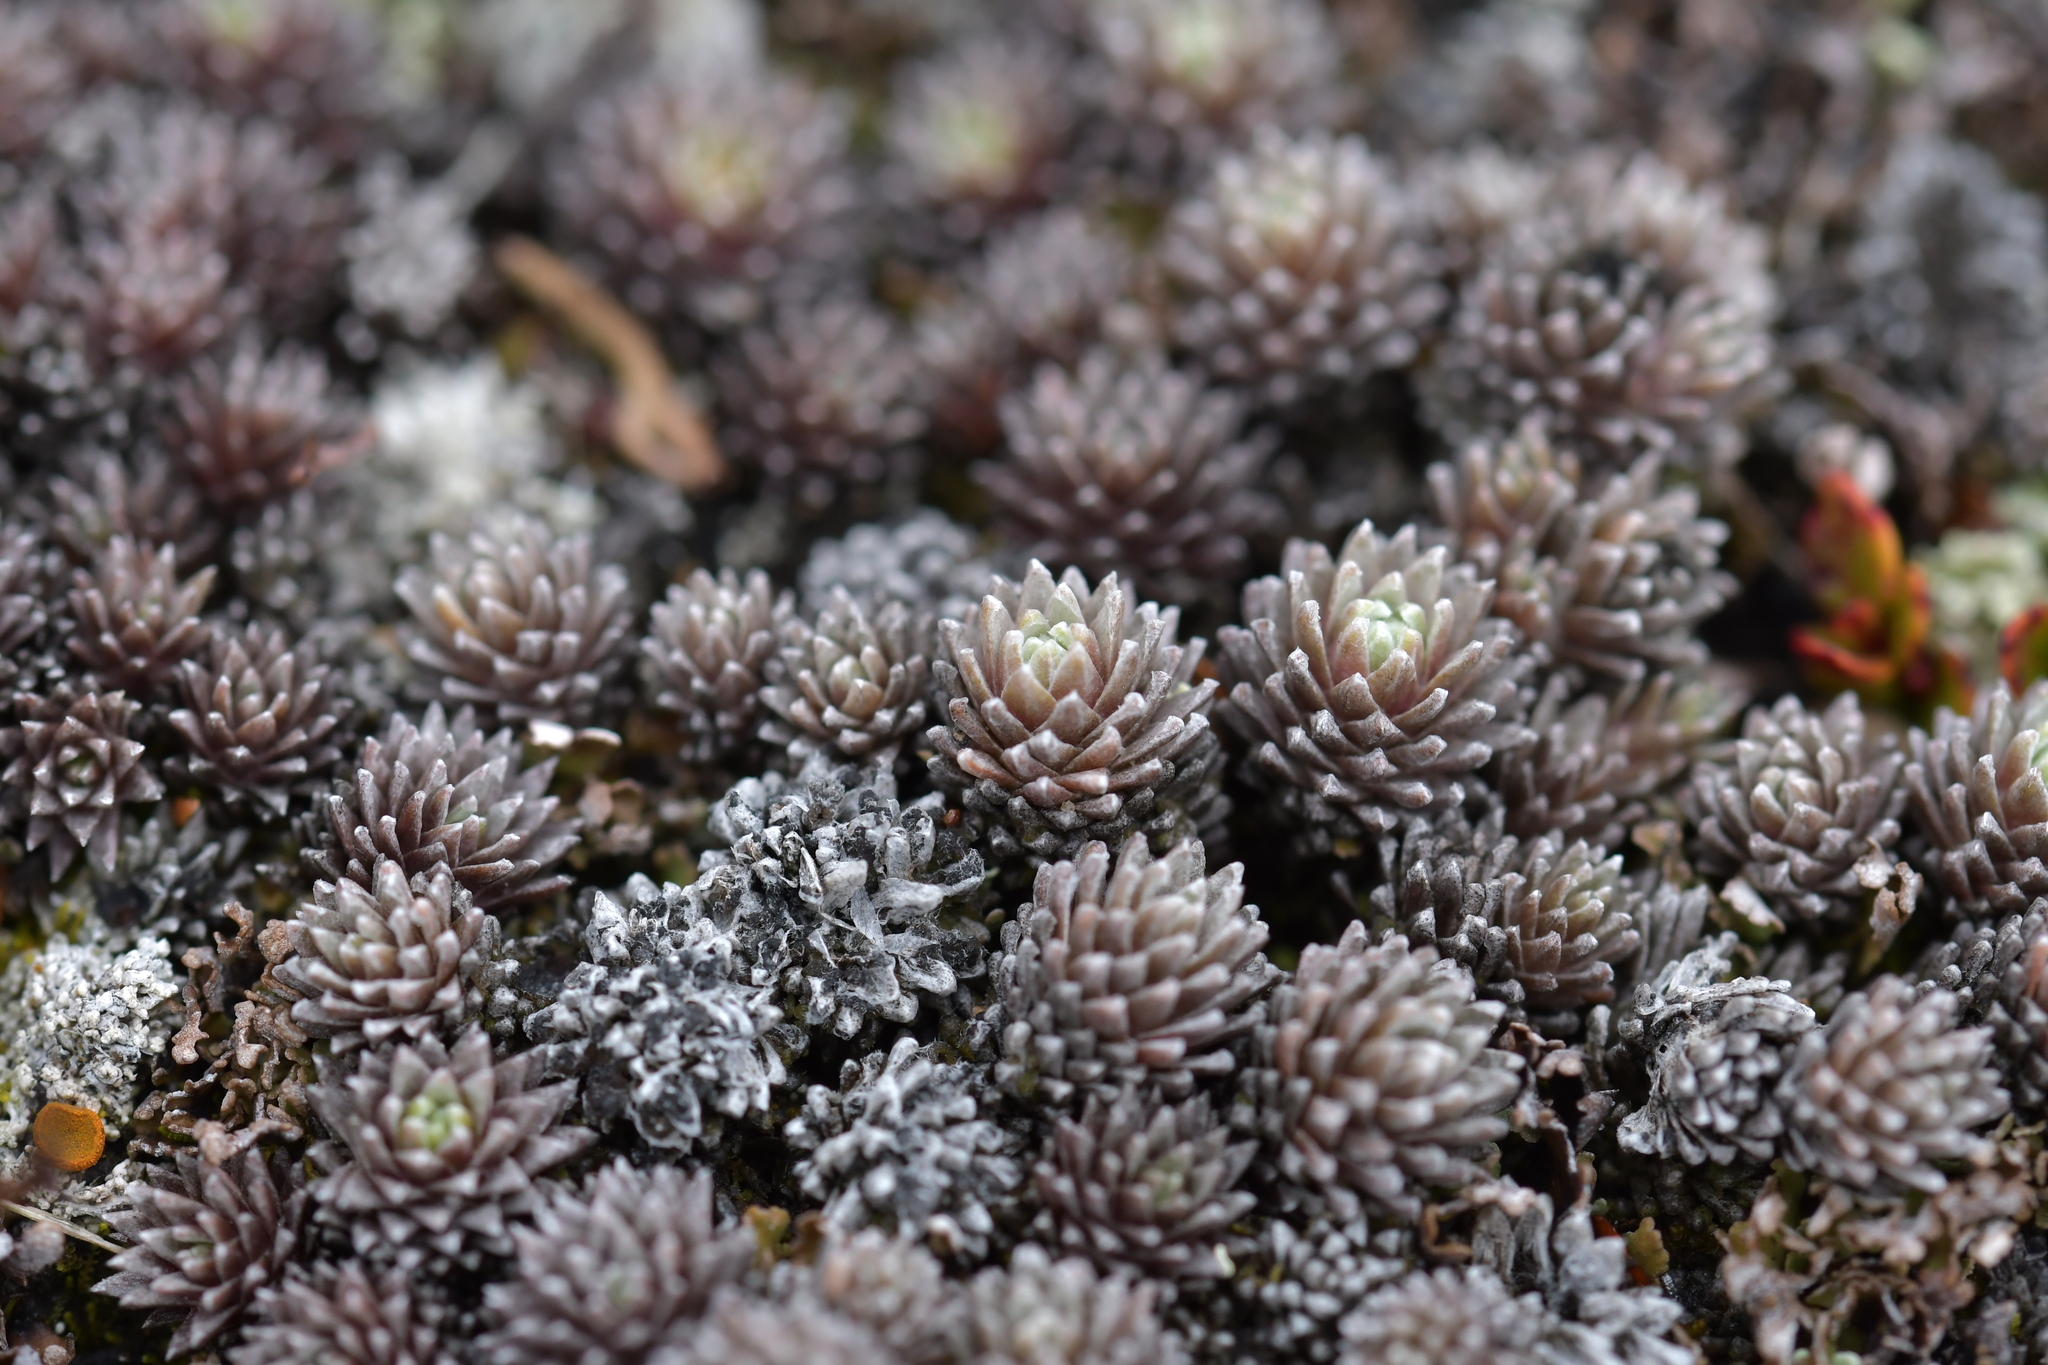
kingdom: Plantae
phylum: Tracheophyta
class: Magnoliopsida
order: Asterales
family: Asteraceae
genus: Raoulia
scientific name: Raoulia grandiflora
